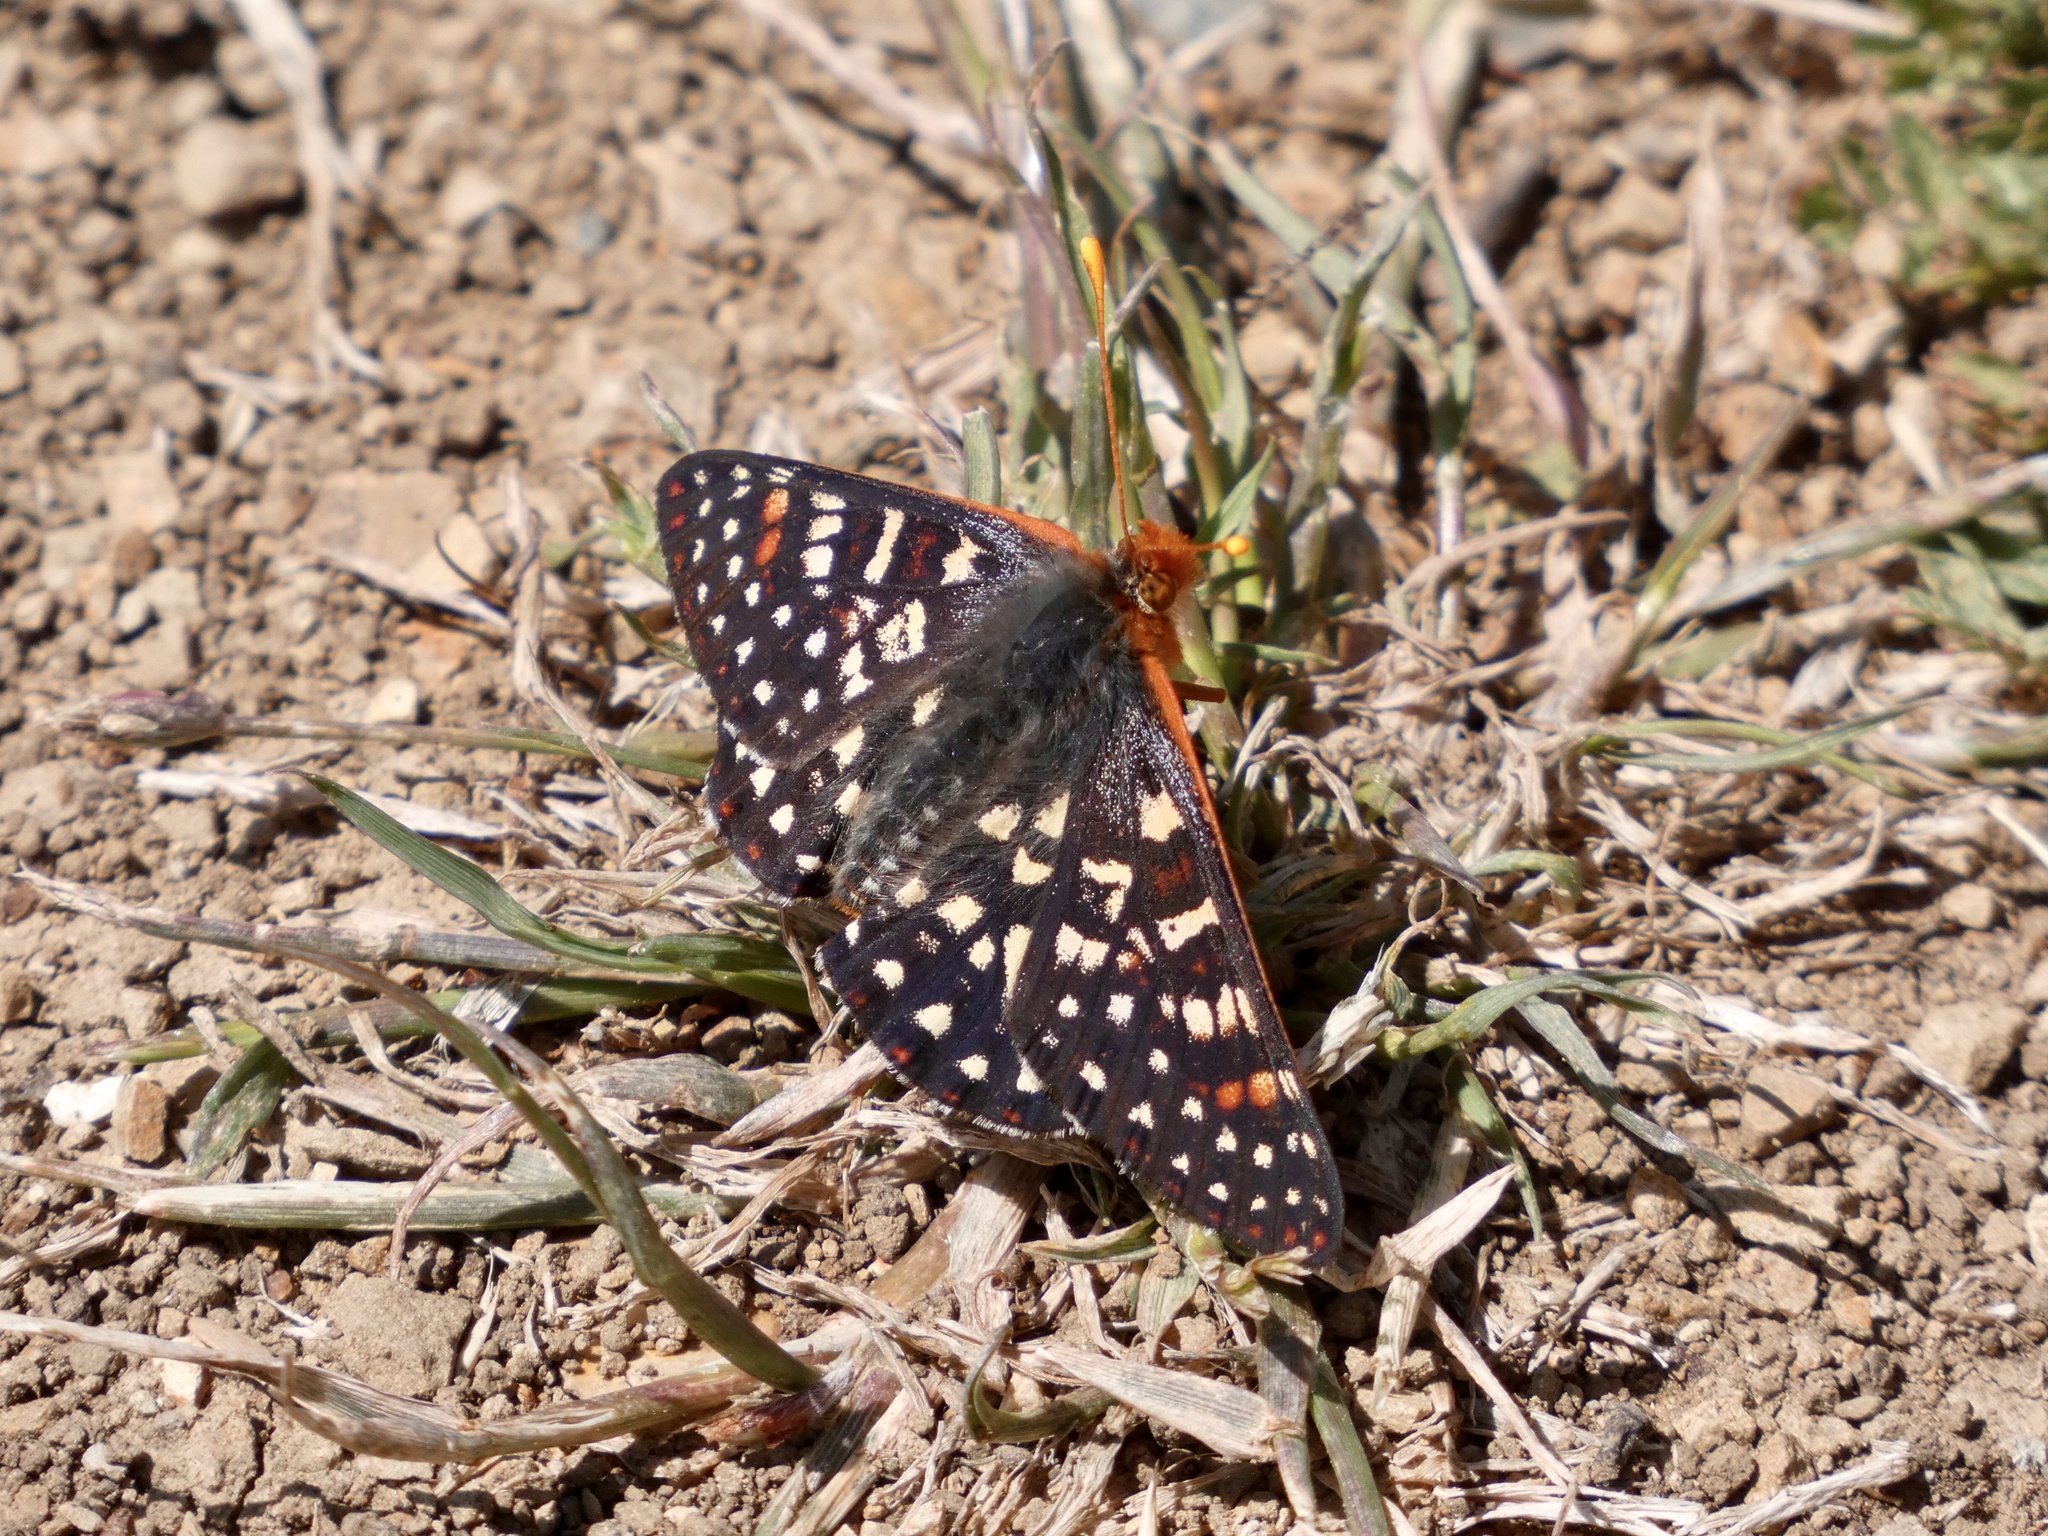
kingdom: Animalia
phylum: Arthropoda
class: Insecta
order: Lepidoptera
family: Nymphalidae
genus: Occidryas
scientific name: Occidryas chalcedona
